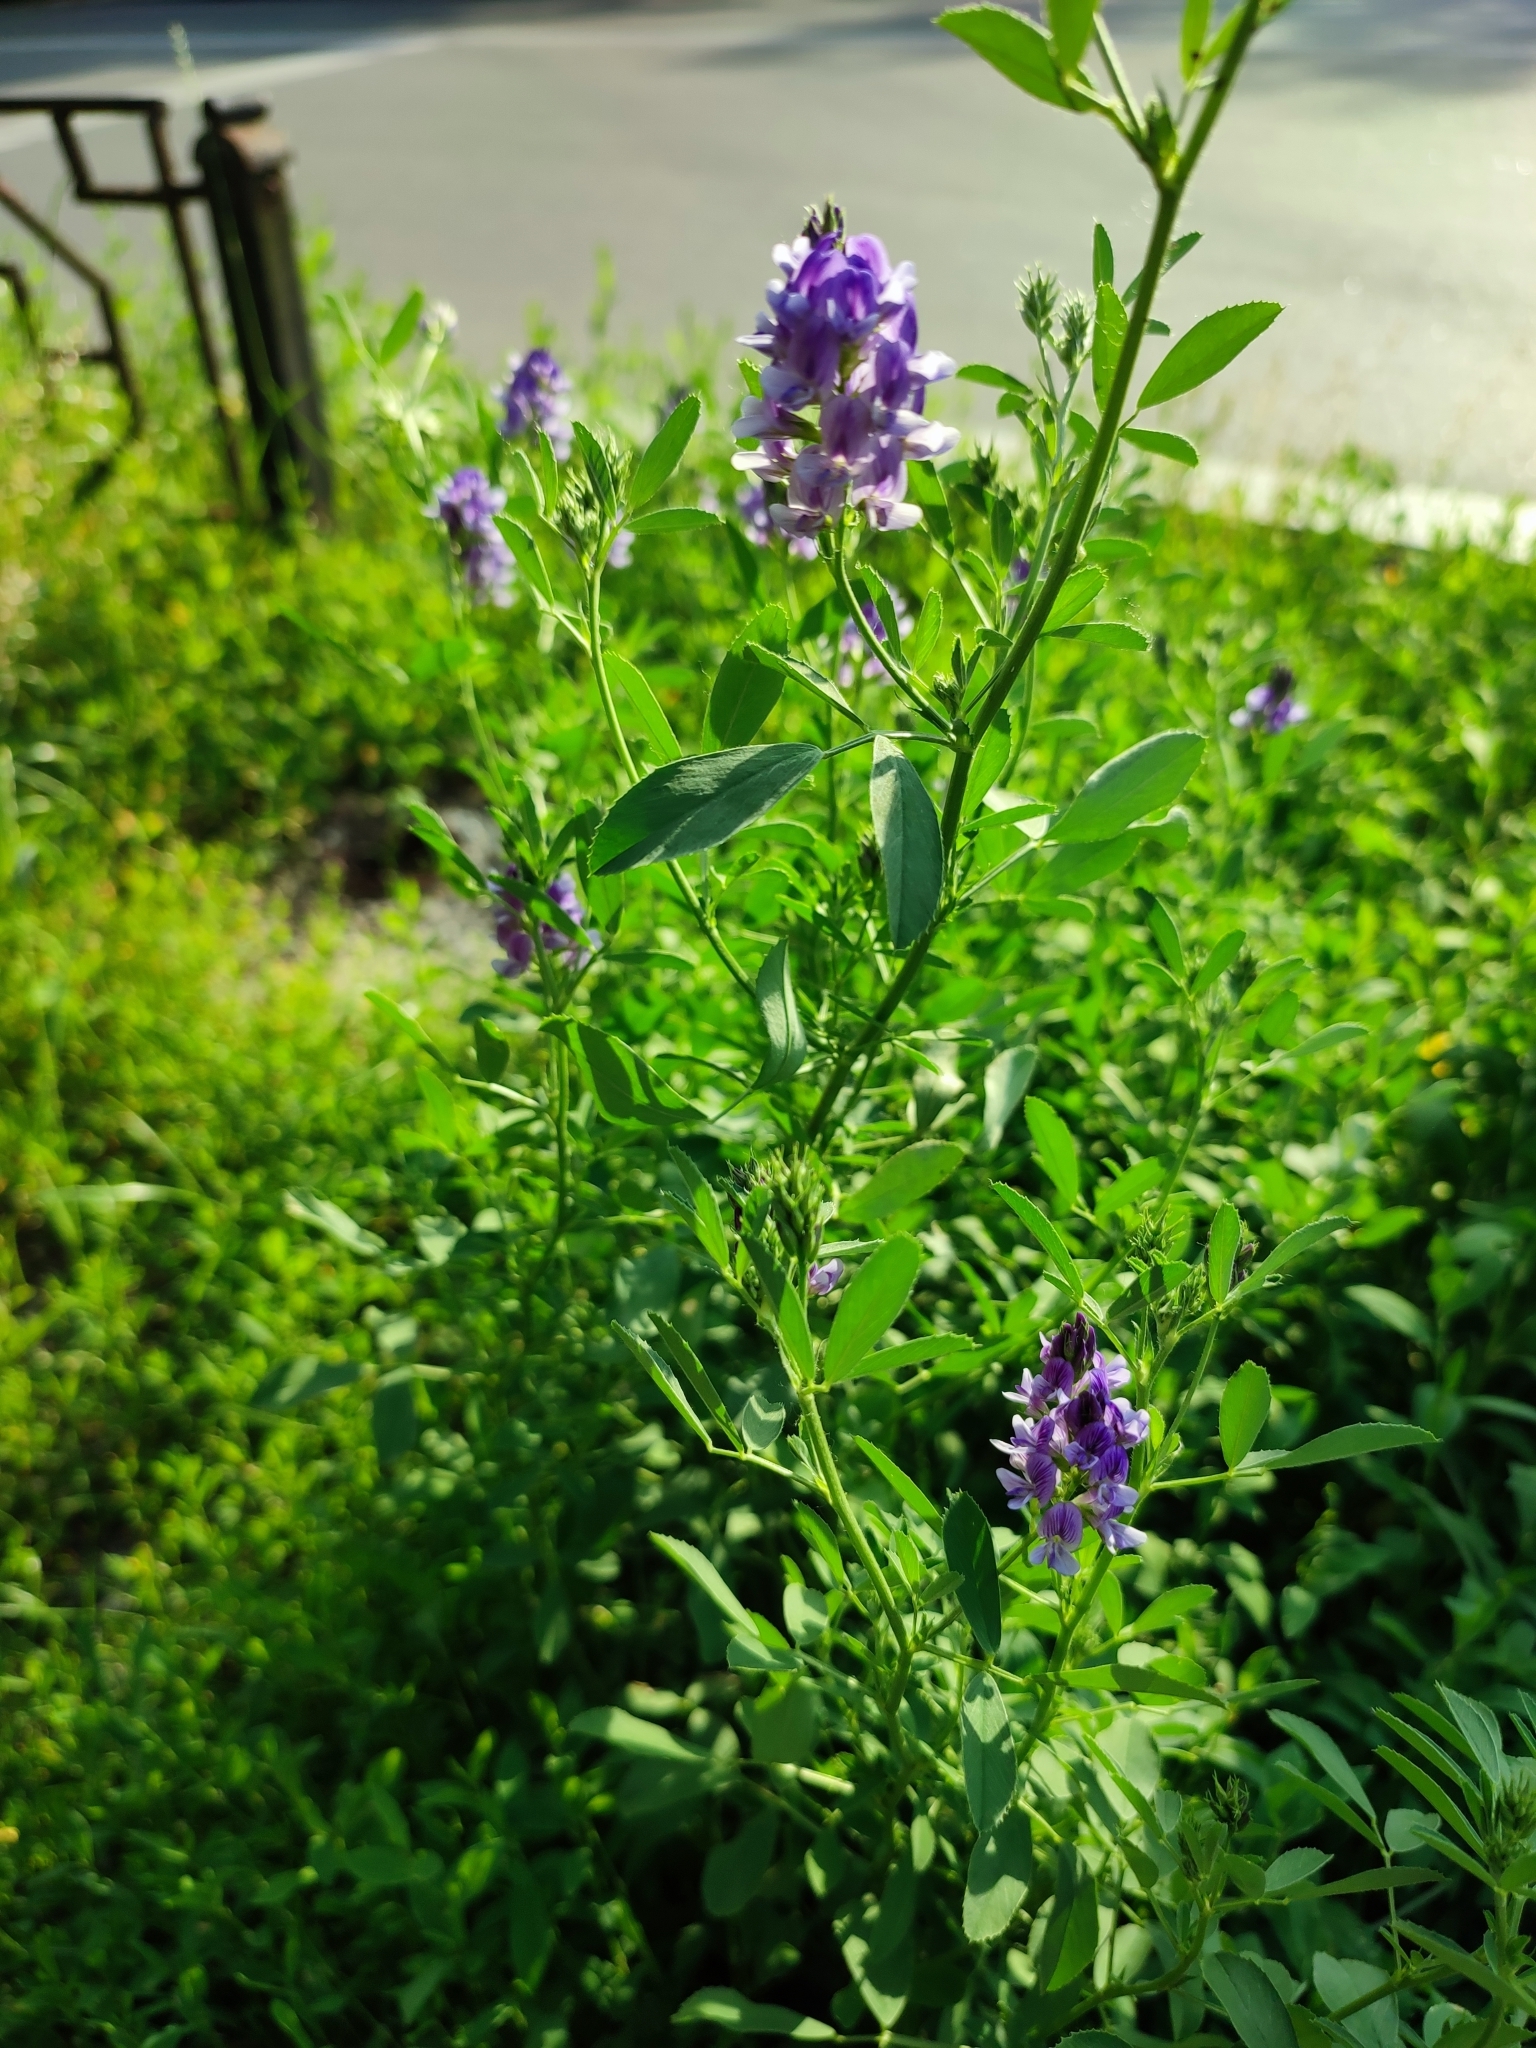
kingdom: Plantae
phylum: Tracheophyta
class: Magnoliopsida
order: Fabales
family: Fabaceae
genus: Medicago
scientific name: Medicago sativa
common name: Alfalfa
